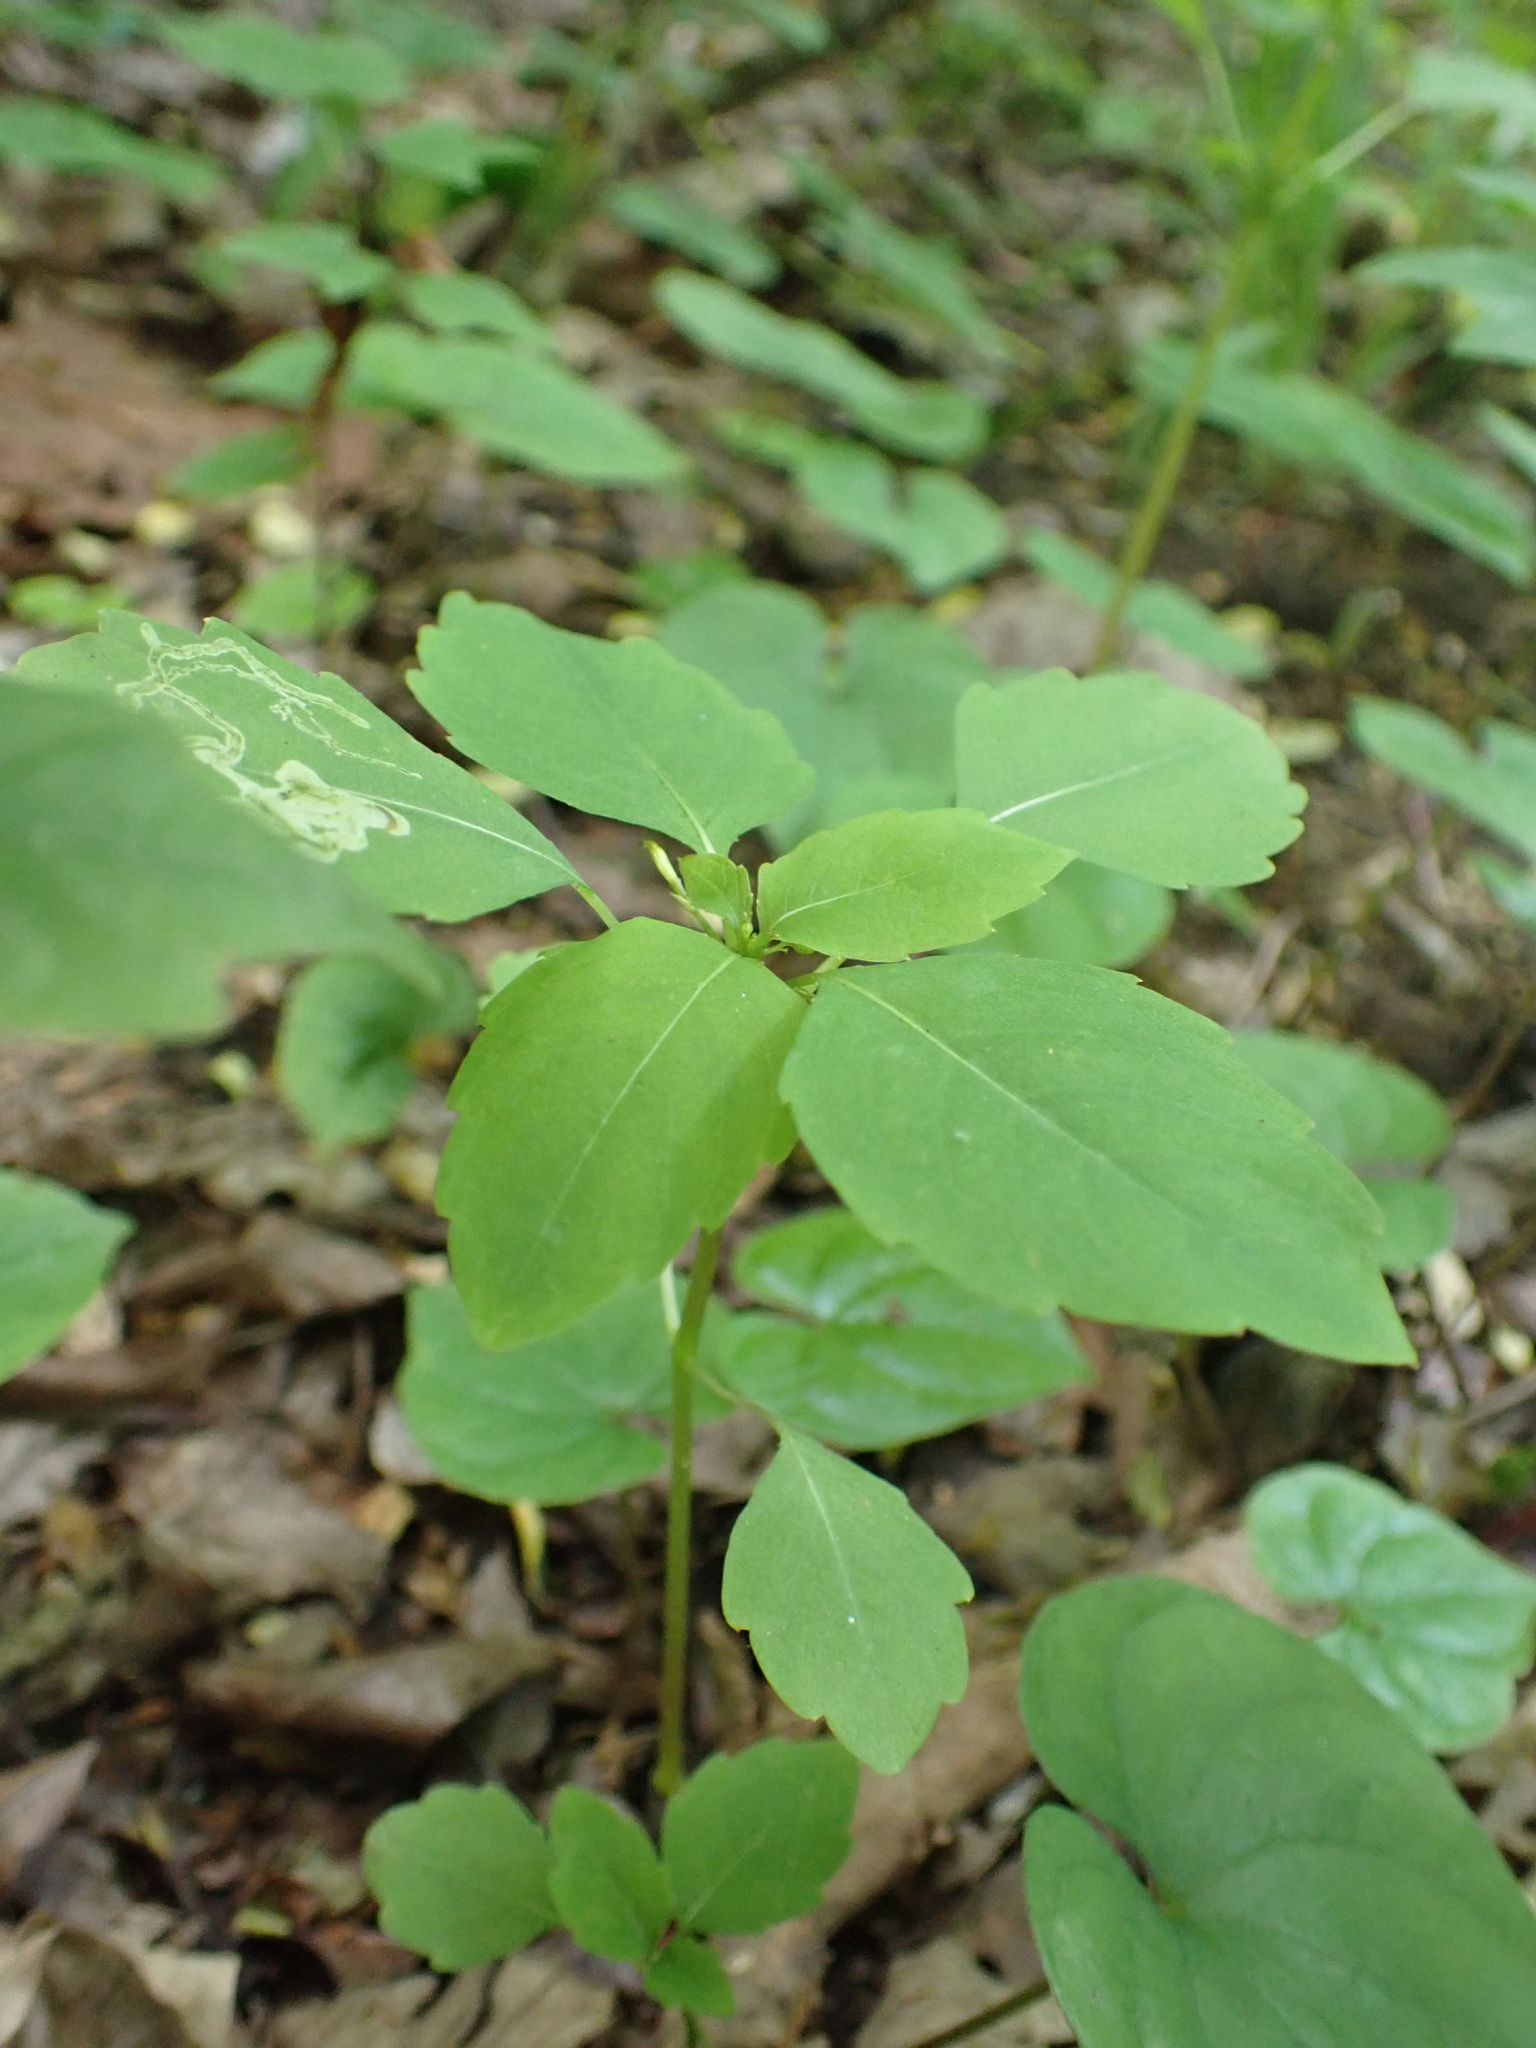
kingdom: Animalia
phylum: Arthropoda
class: Insecta
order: Diptera
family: Agromyzidae
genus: Phytoliriomyza
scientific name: Phytoliriomyza melampyga
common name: Jewelweed leaf-miner fly
